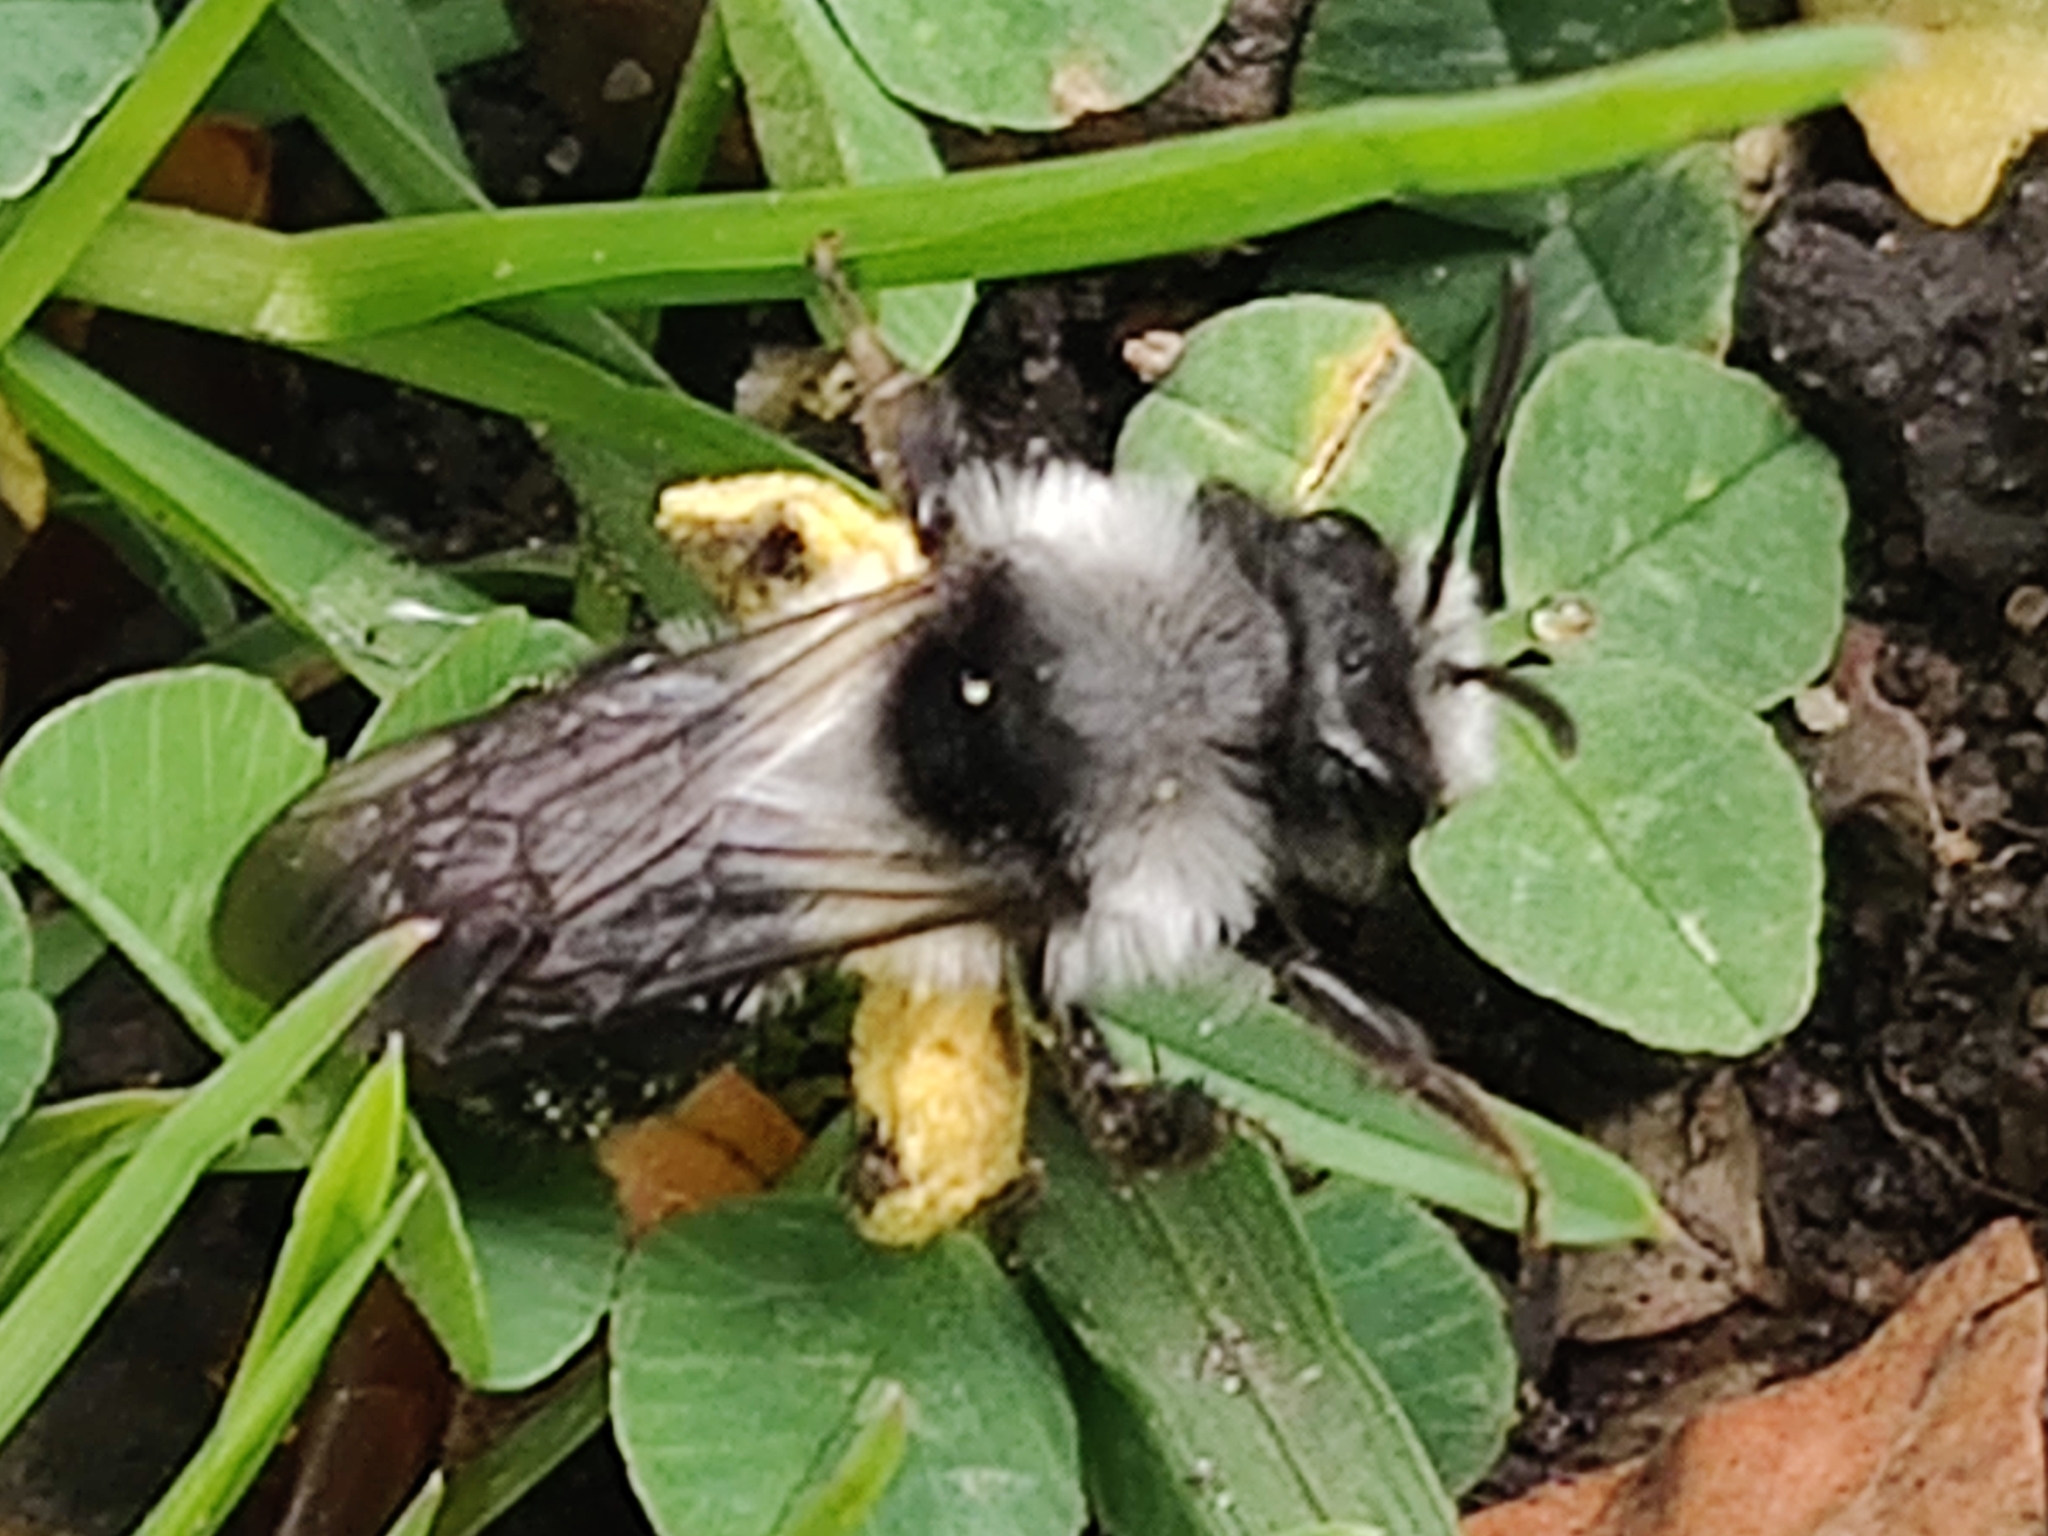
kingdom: Animalia
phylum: Arthropoda
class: Insecta
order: Hymenoptera
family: Andrenidae
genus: Andrena
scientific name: Andrena cineraria
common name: Ashy mining bee
